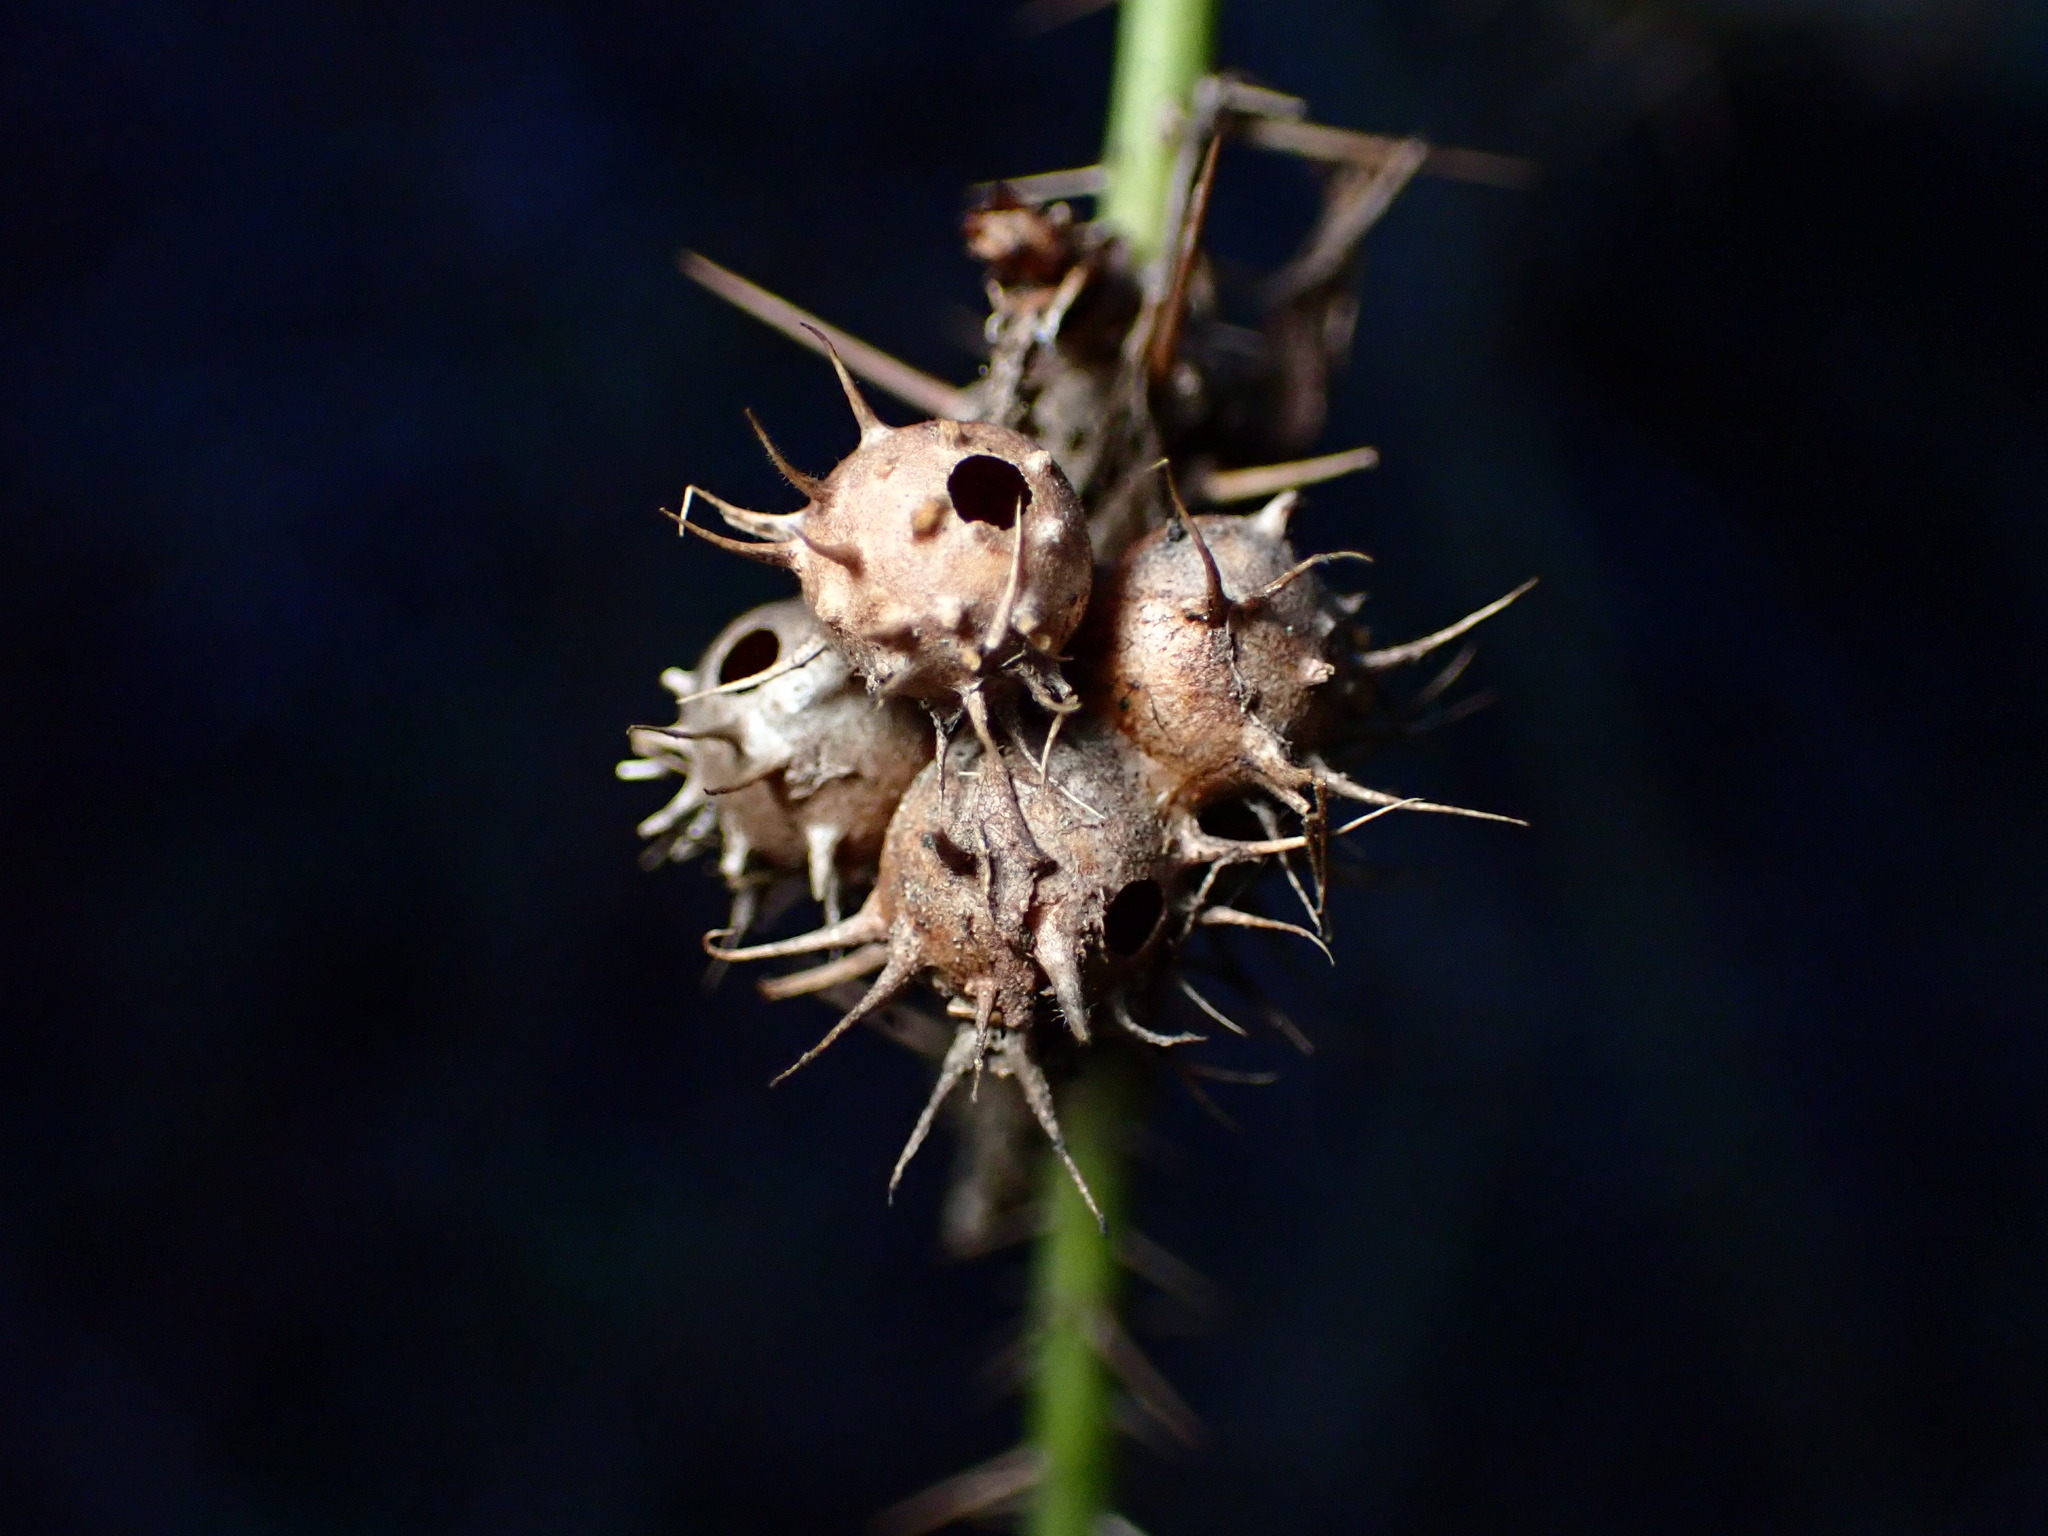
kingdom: Animalia
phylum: Arthropoda
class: Insecta
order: Hymenoptera
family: Cynipidae
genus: Diplolepis
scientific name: Diplolepis bicolor
